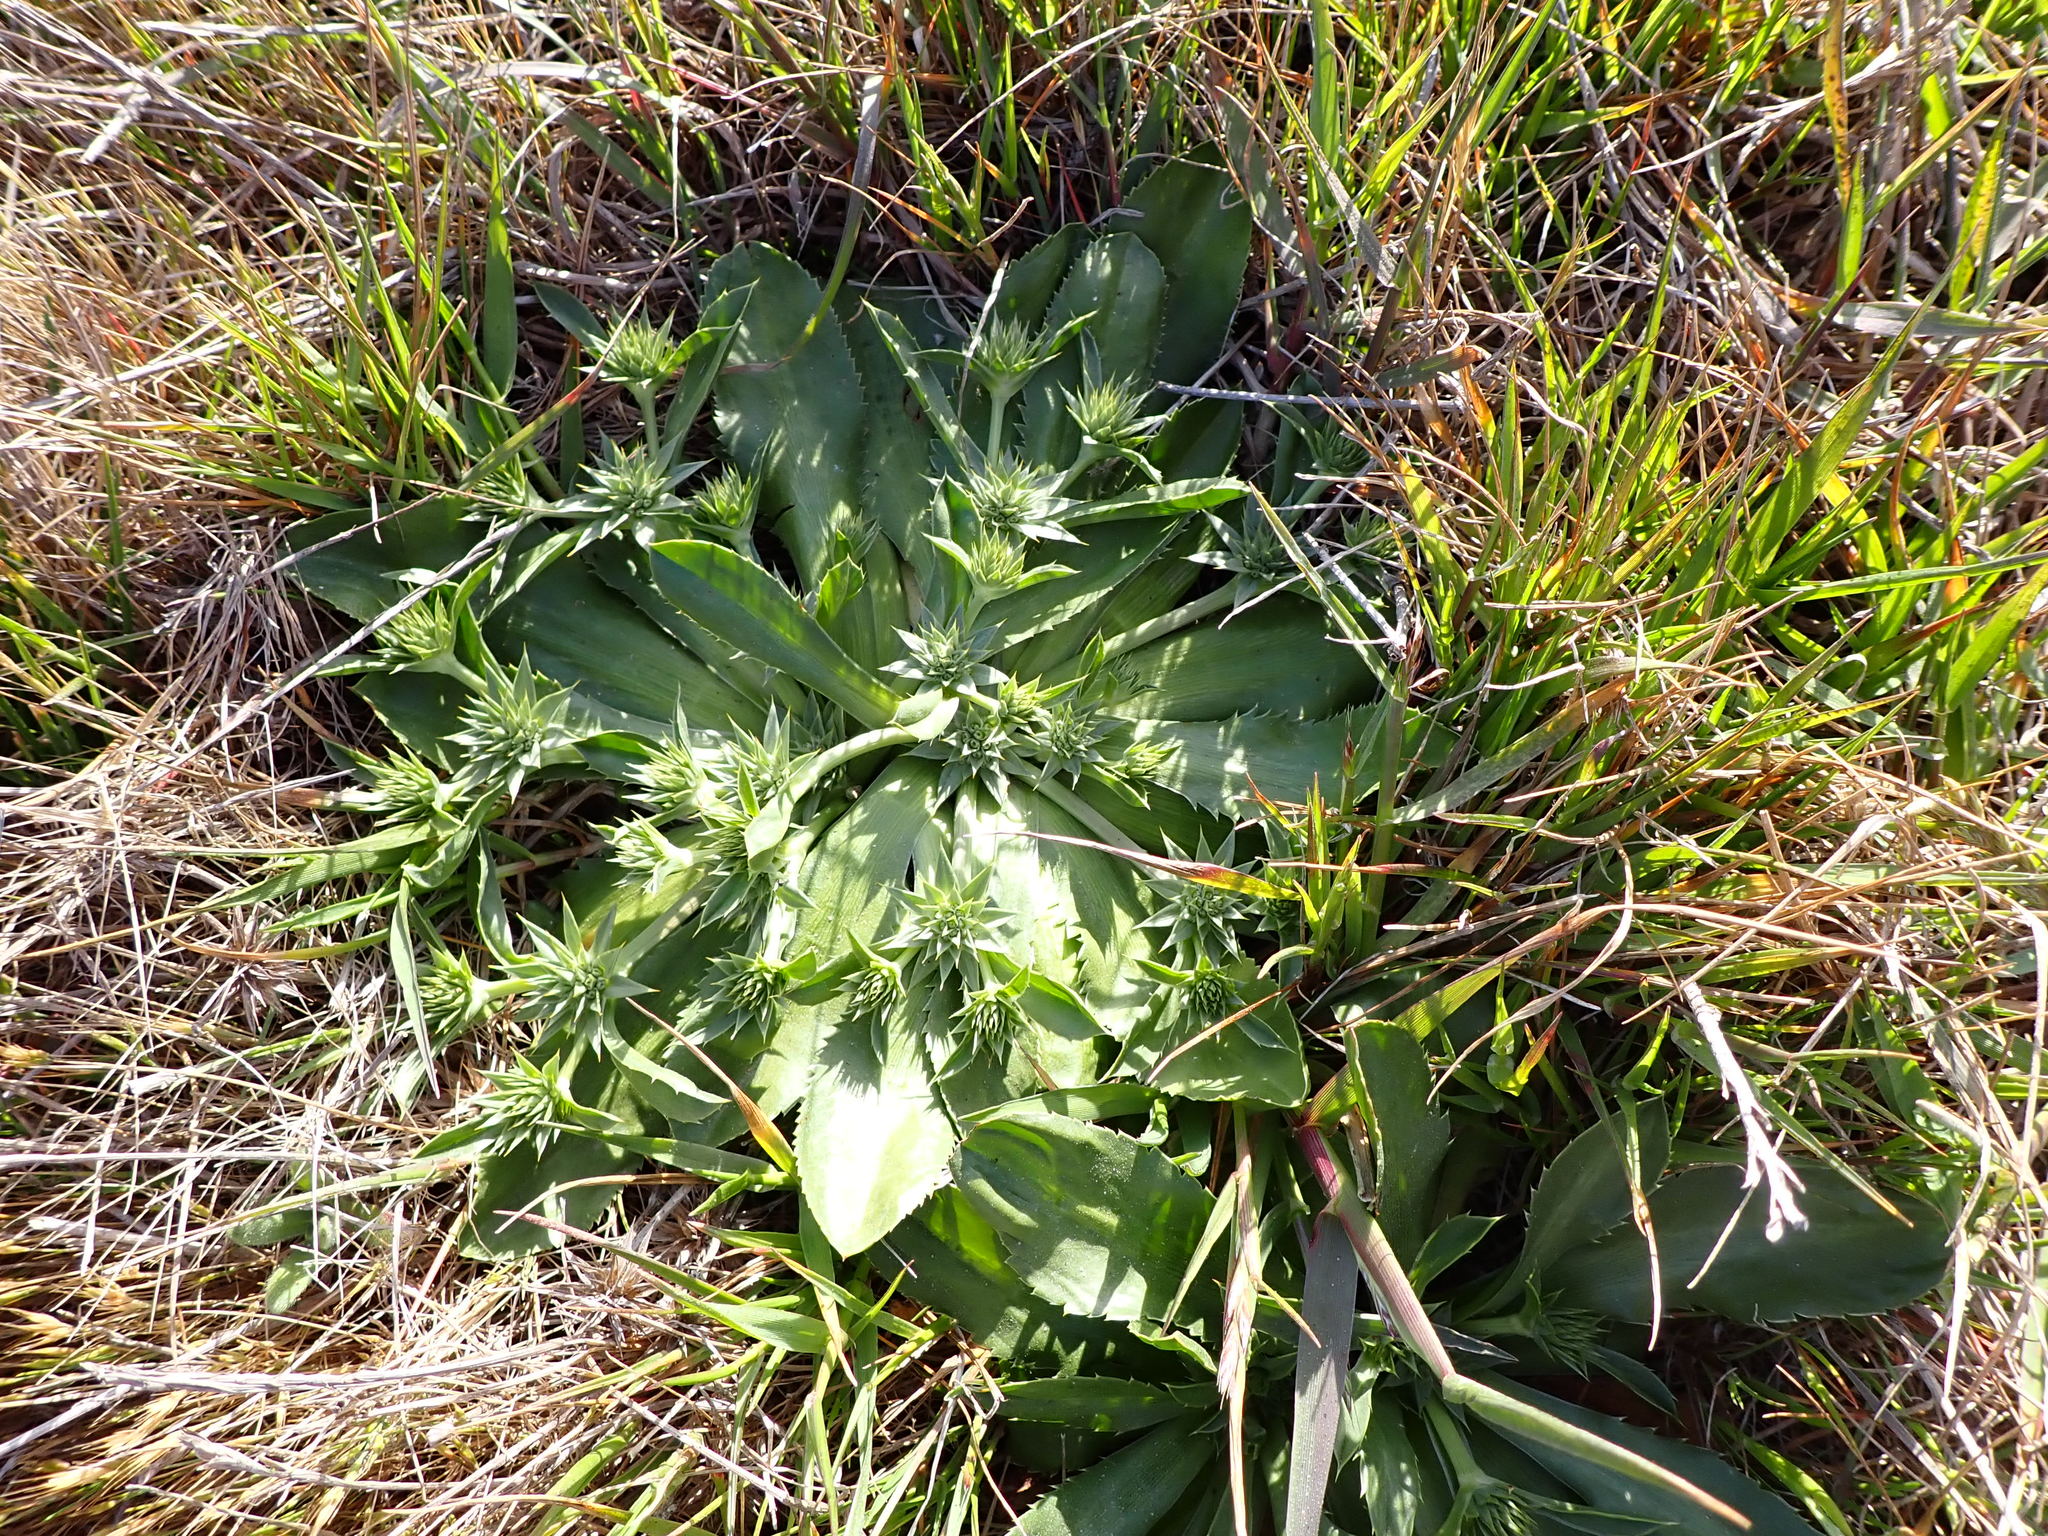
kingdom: Plantae
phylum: Tracheophyta
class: Magnoliopsida
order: Apiales
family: Apiaceae
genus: Eryngium
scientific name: Eryngium armatum
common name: Coyote thistle
